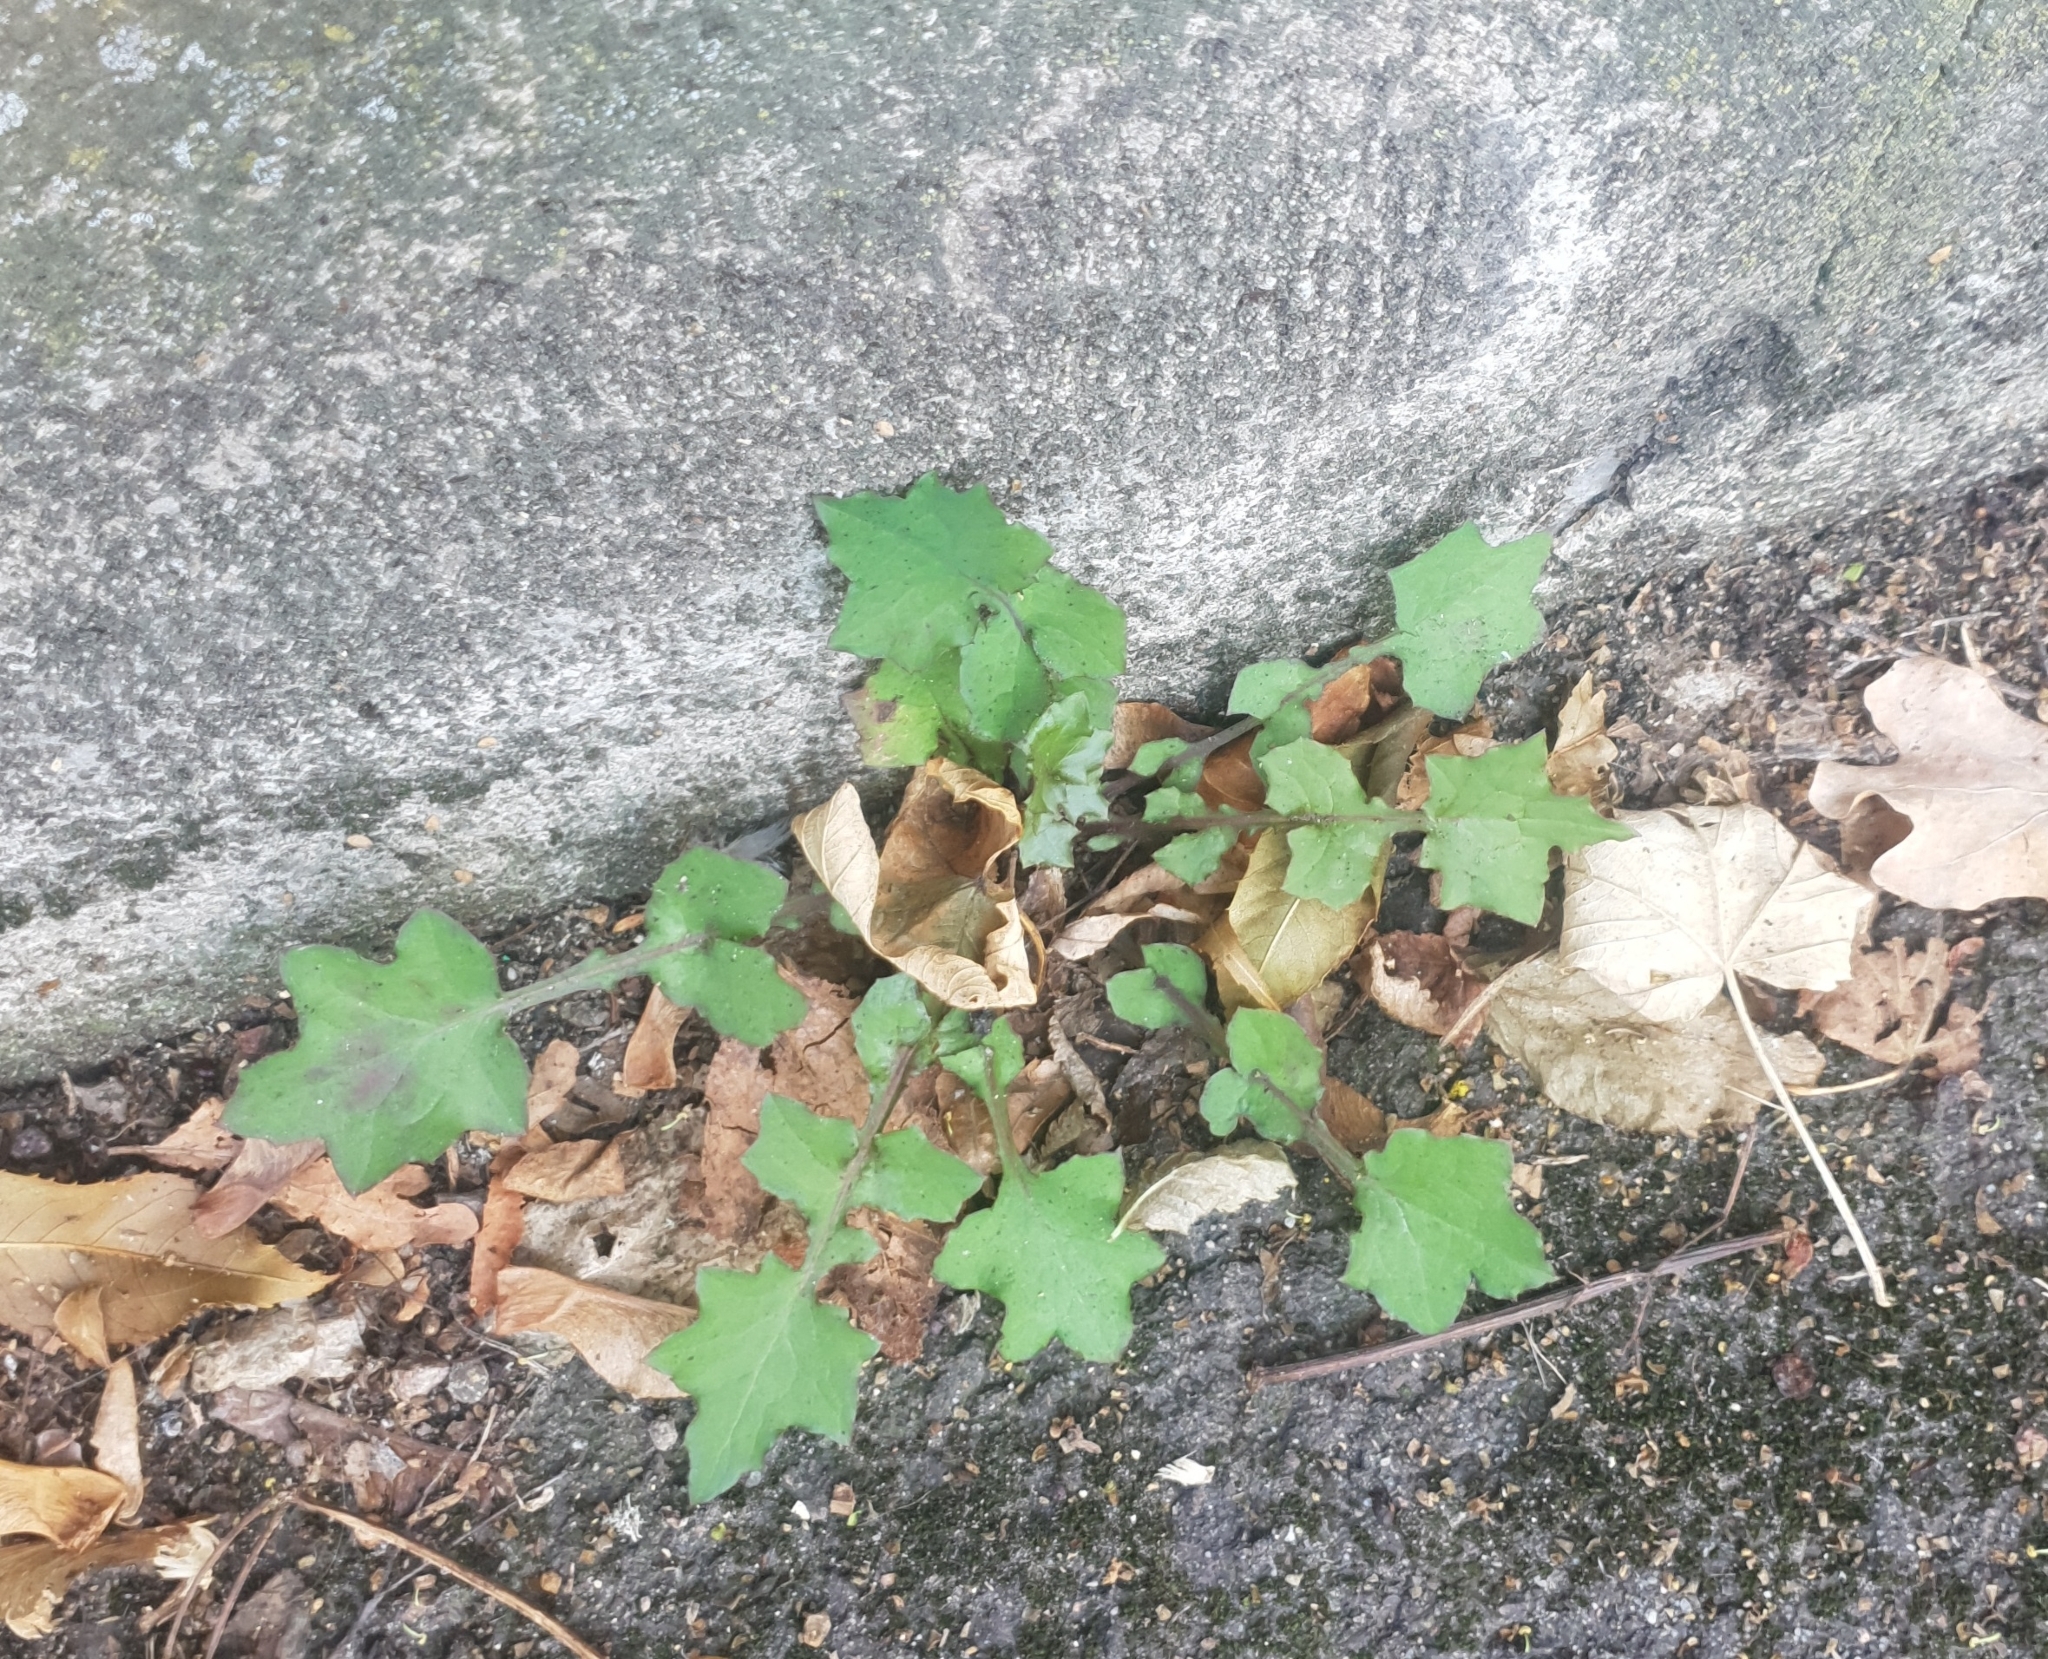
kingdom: Plantae
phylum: Tracheophyta
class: Magnoliopsida
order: Asterales
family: Asteraceae
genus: Mycelis
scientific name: Mycelis muralis
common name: Wall lettuce
